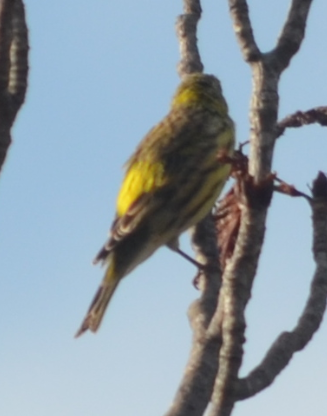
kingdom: Animalia
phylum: Chordata
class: Aves
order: Passeriformes
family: Fringillidae
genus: Serinus
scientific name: Serinus serinus
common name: European serin
